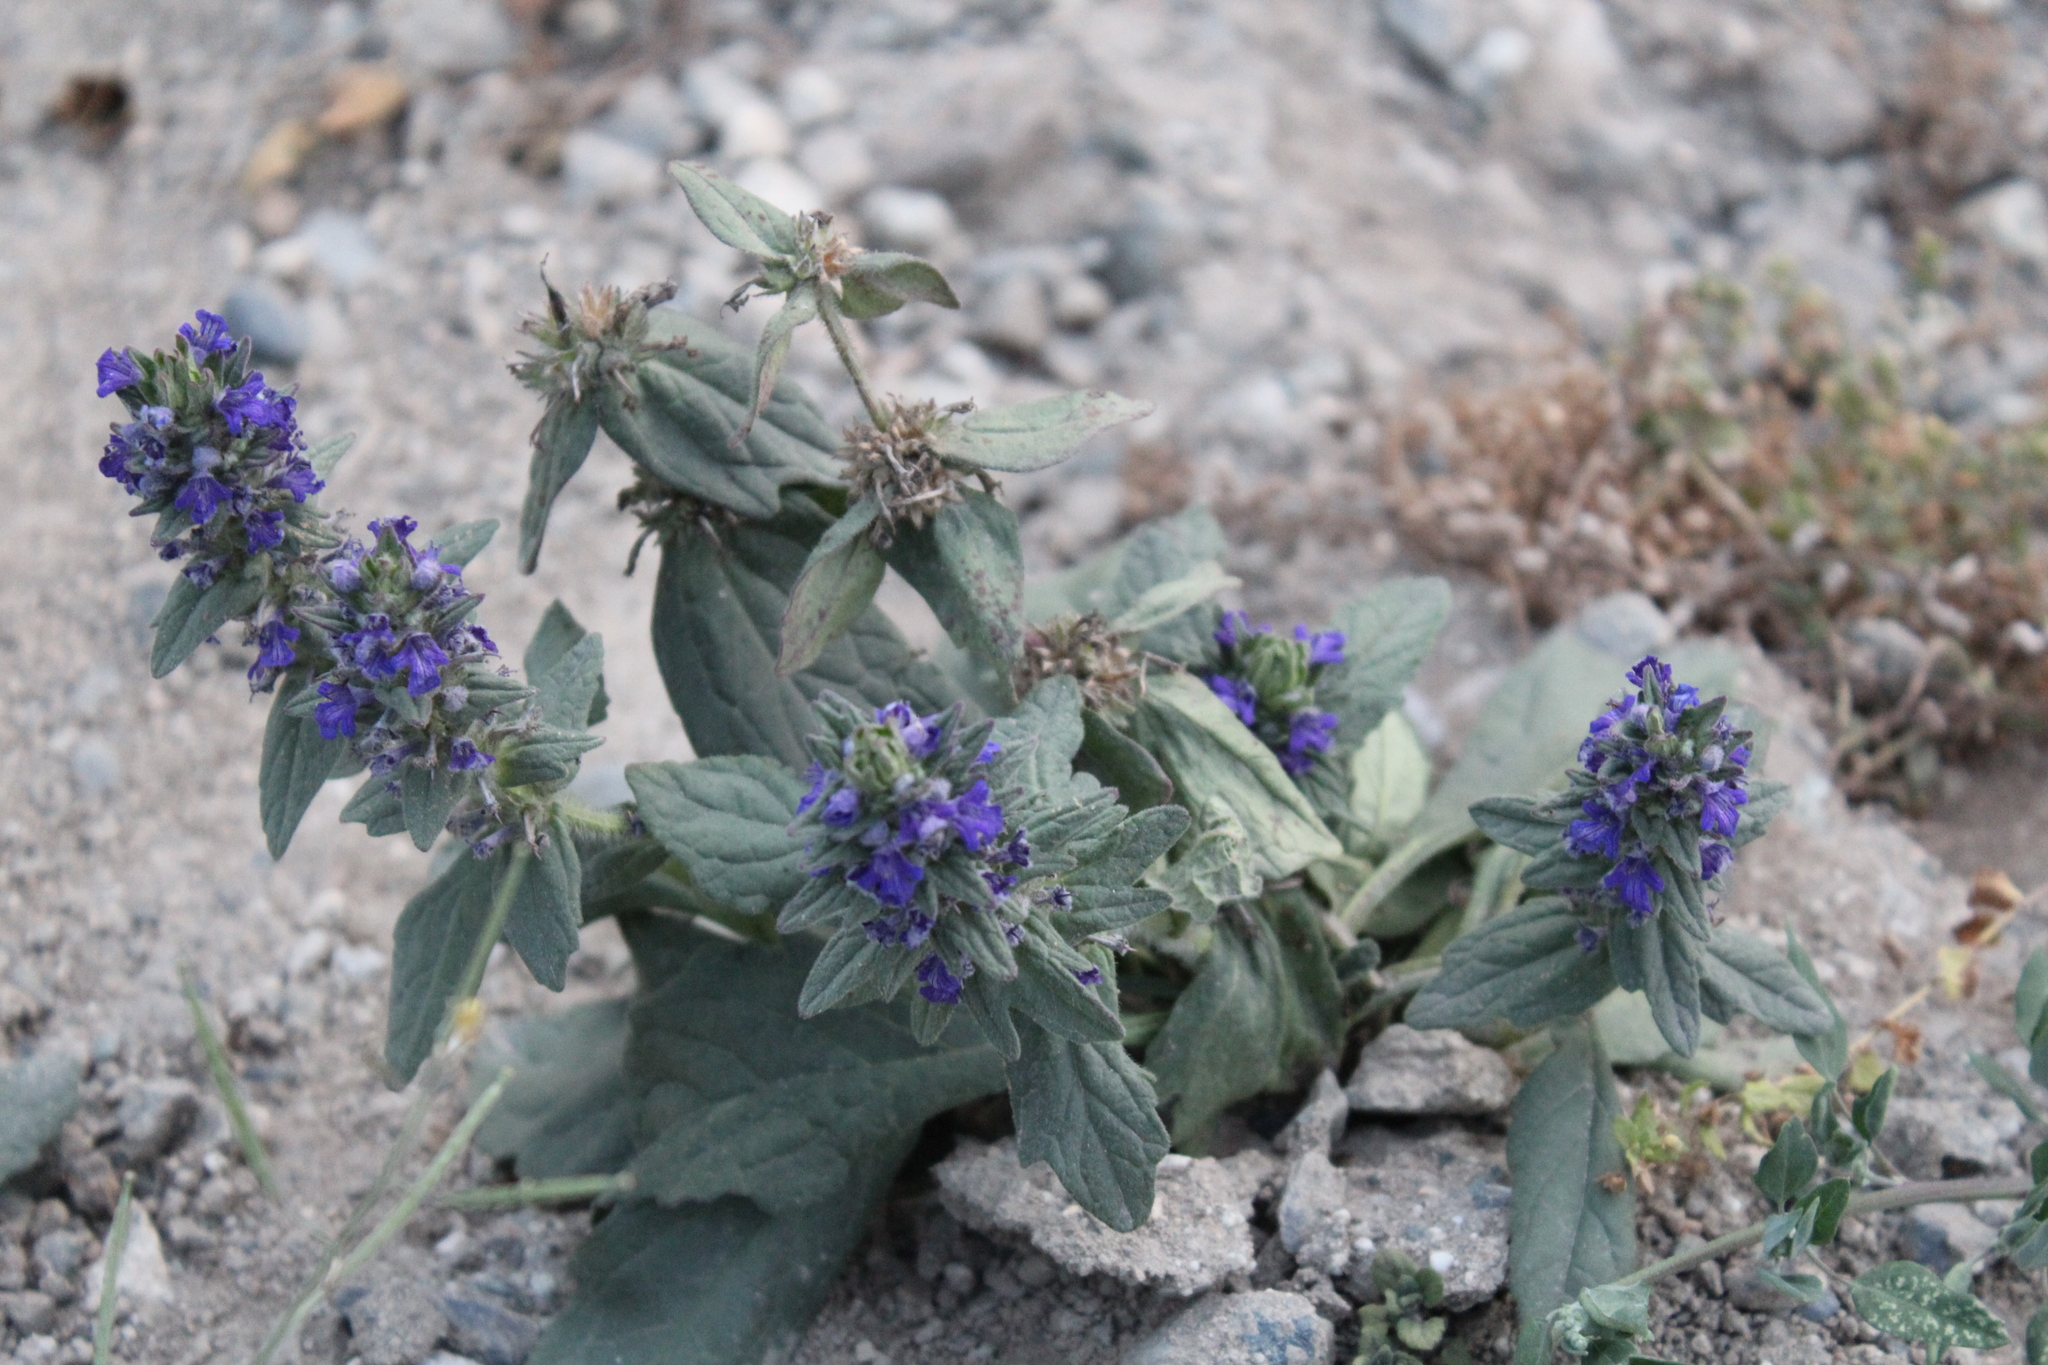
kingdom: Plantae
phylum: Tracheophyta
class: Magnoliopsida
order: Lamiales
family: Lamiaceae
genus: Ajuga
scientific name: Ajuga genevensis
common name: Blue bugle
